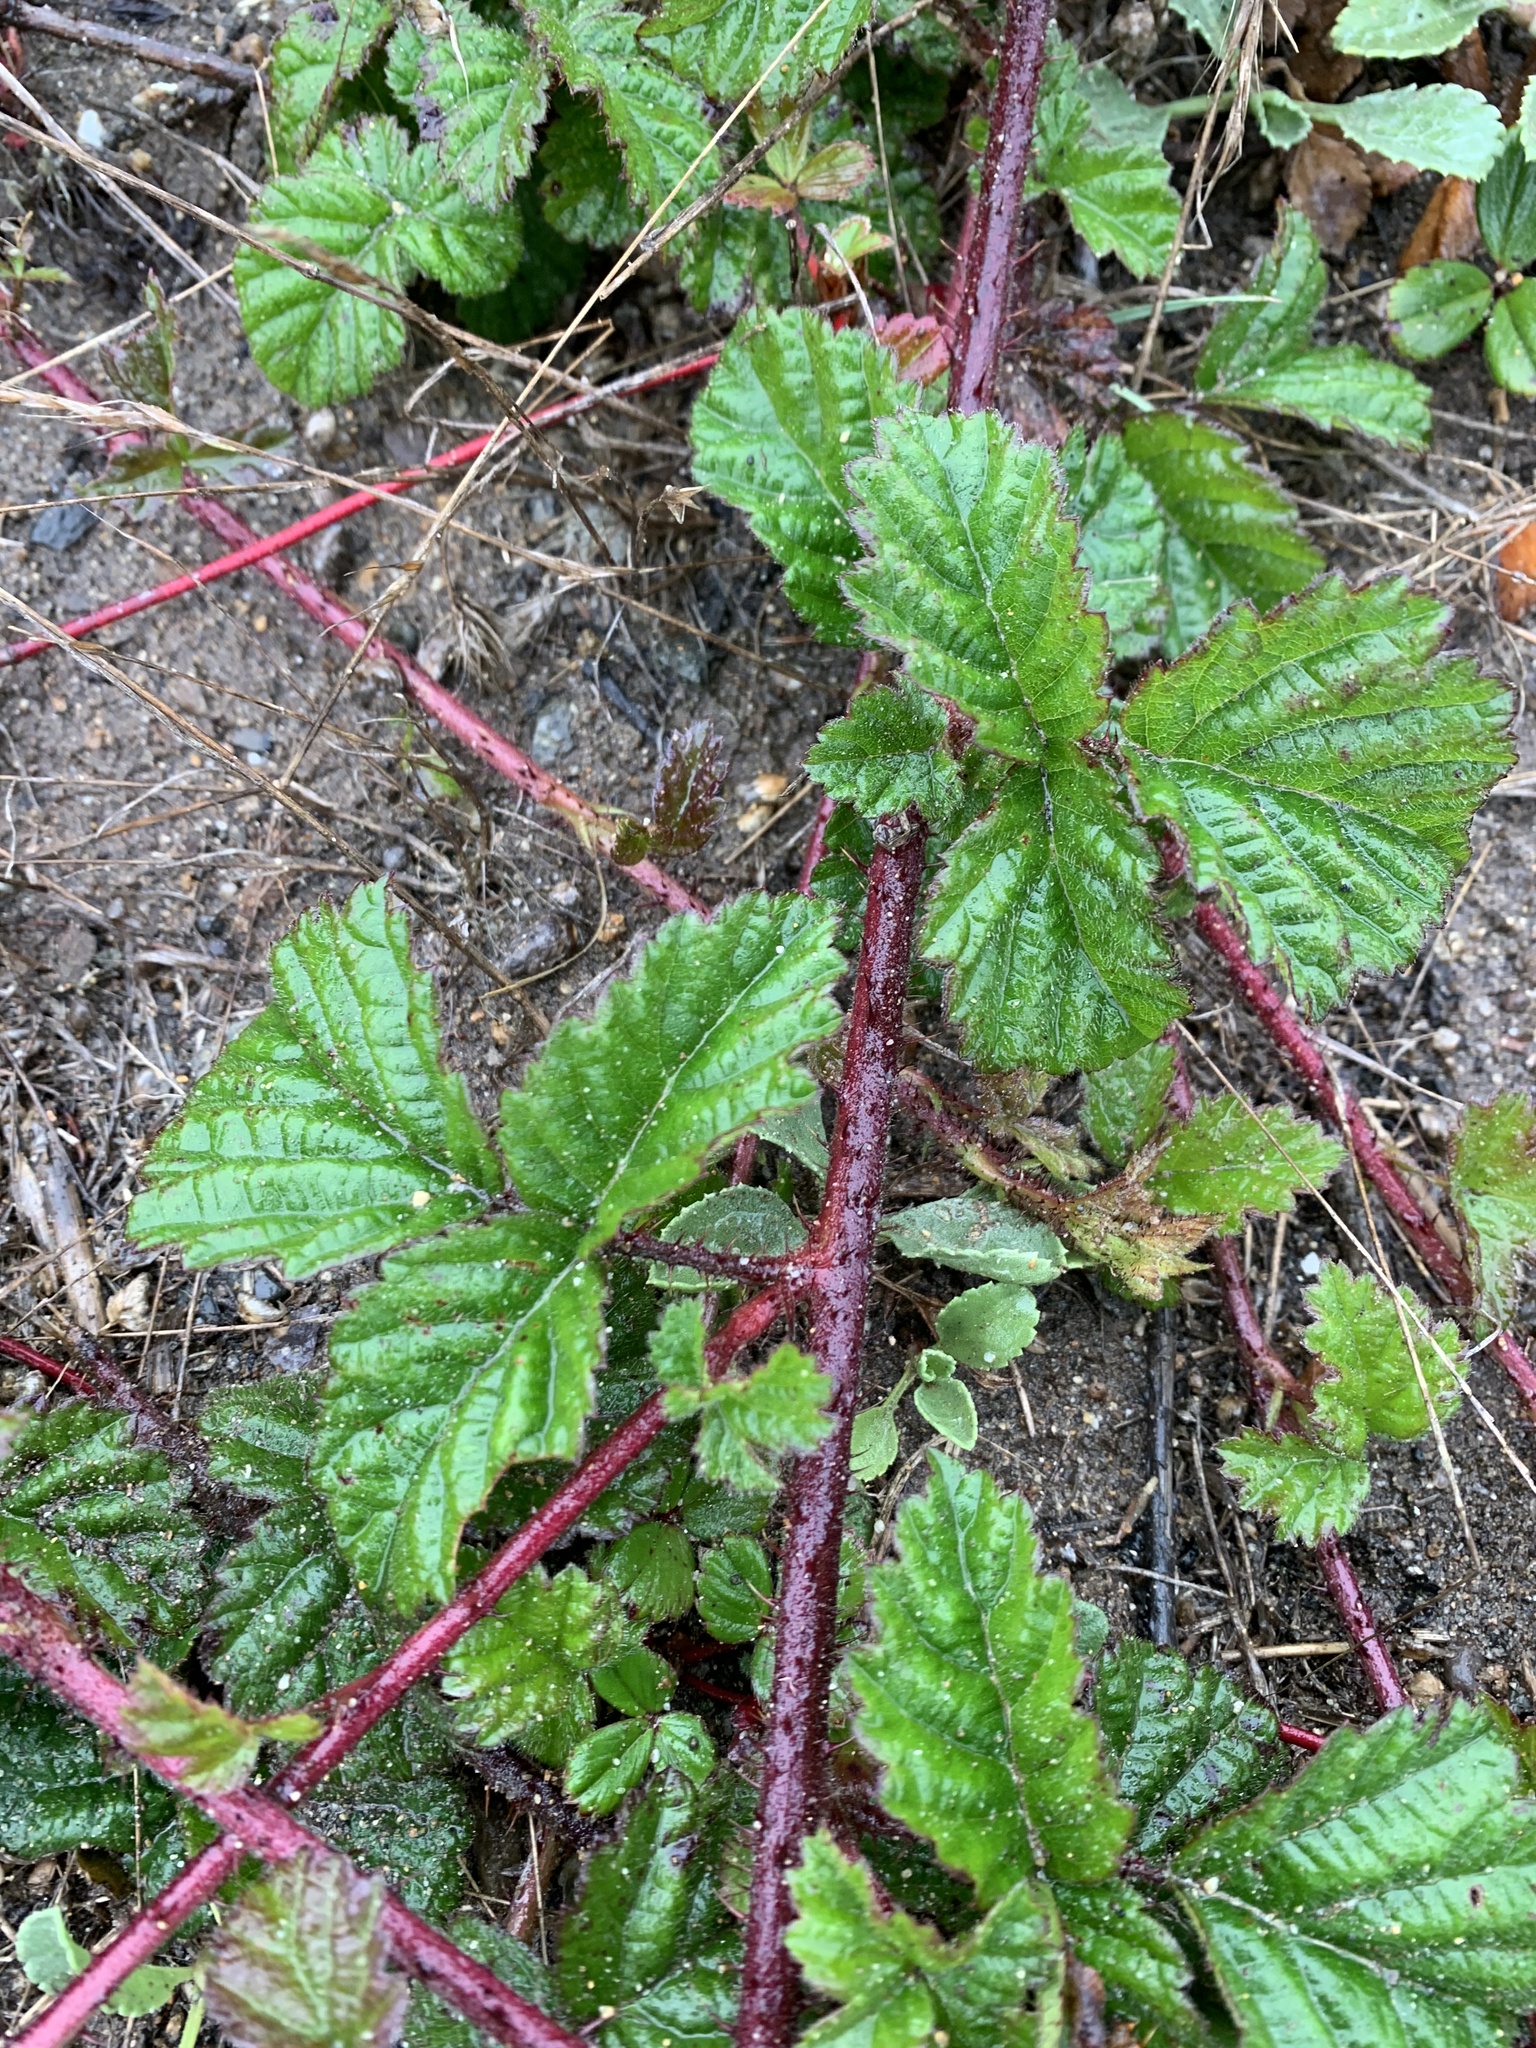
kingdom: Plantae
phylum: Tracheophyta
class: Magnoliopsida
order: Rosales
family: Rosaceae
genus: Rubus
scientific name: Rubus ursinus
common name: Pacific blackberry
